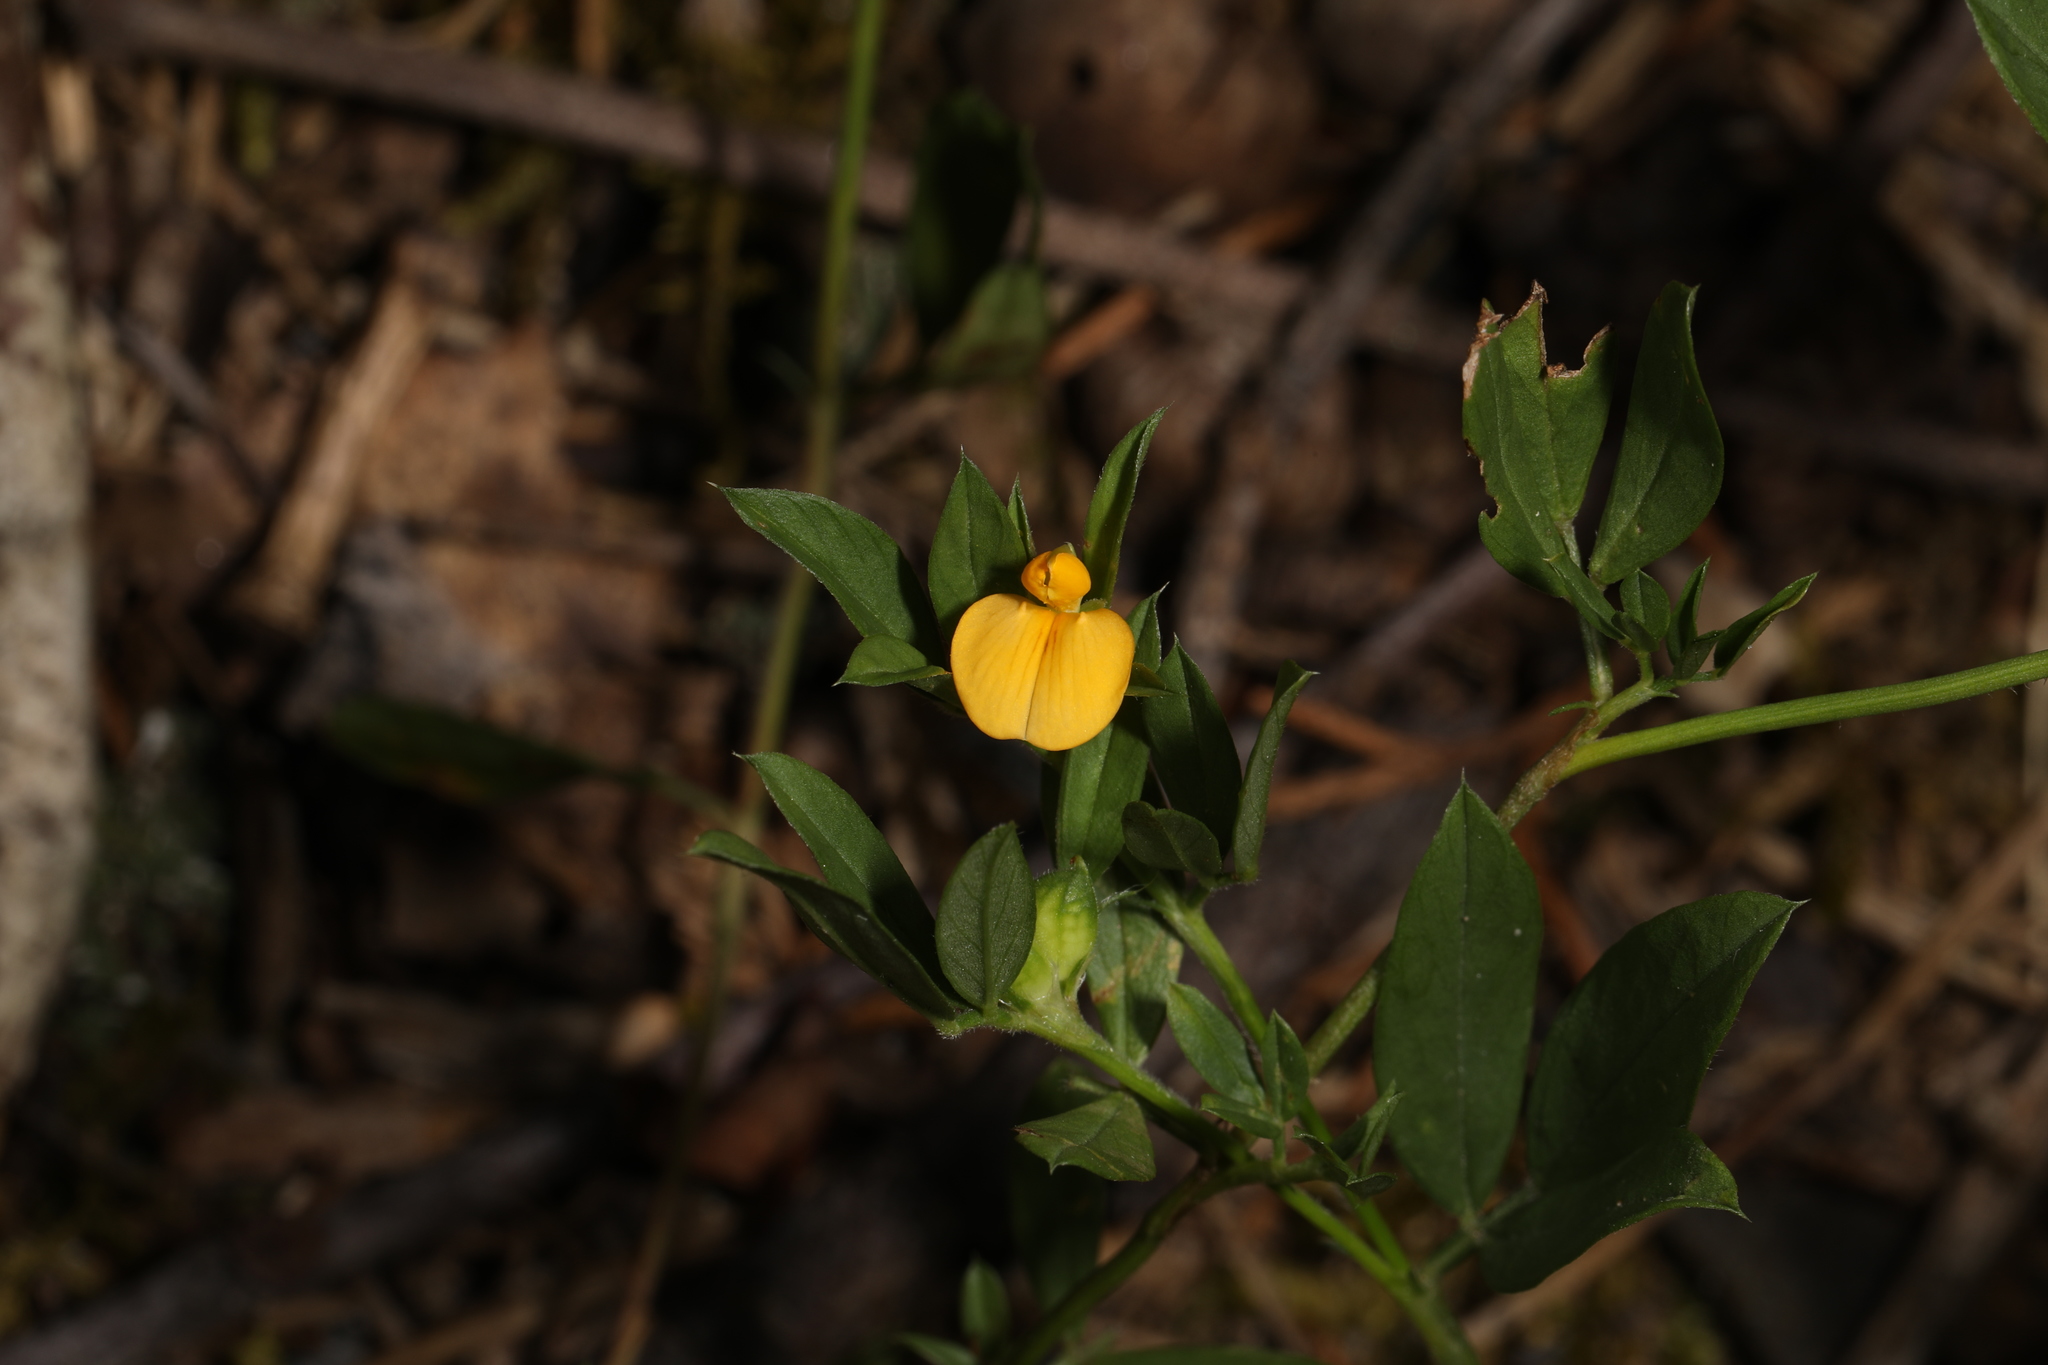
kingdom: Plantae
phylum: Tracheophyta
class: Magnoliopsida
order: Fabales
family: Fabaceae
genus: Stylosanthes
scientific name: Stylosanthes biflora
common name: Two-flower pencil-flower
